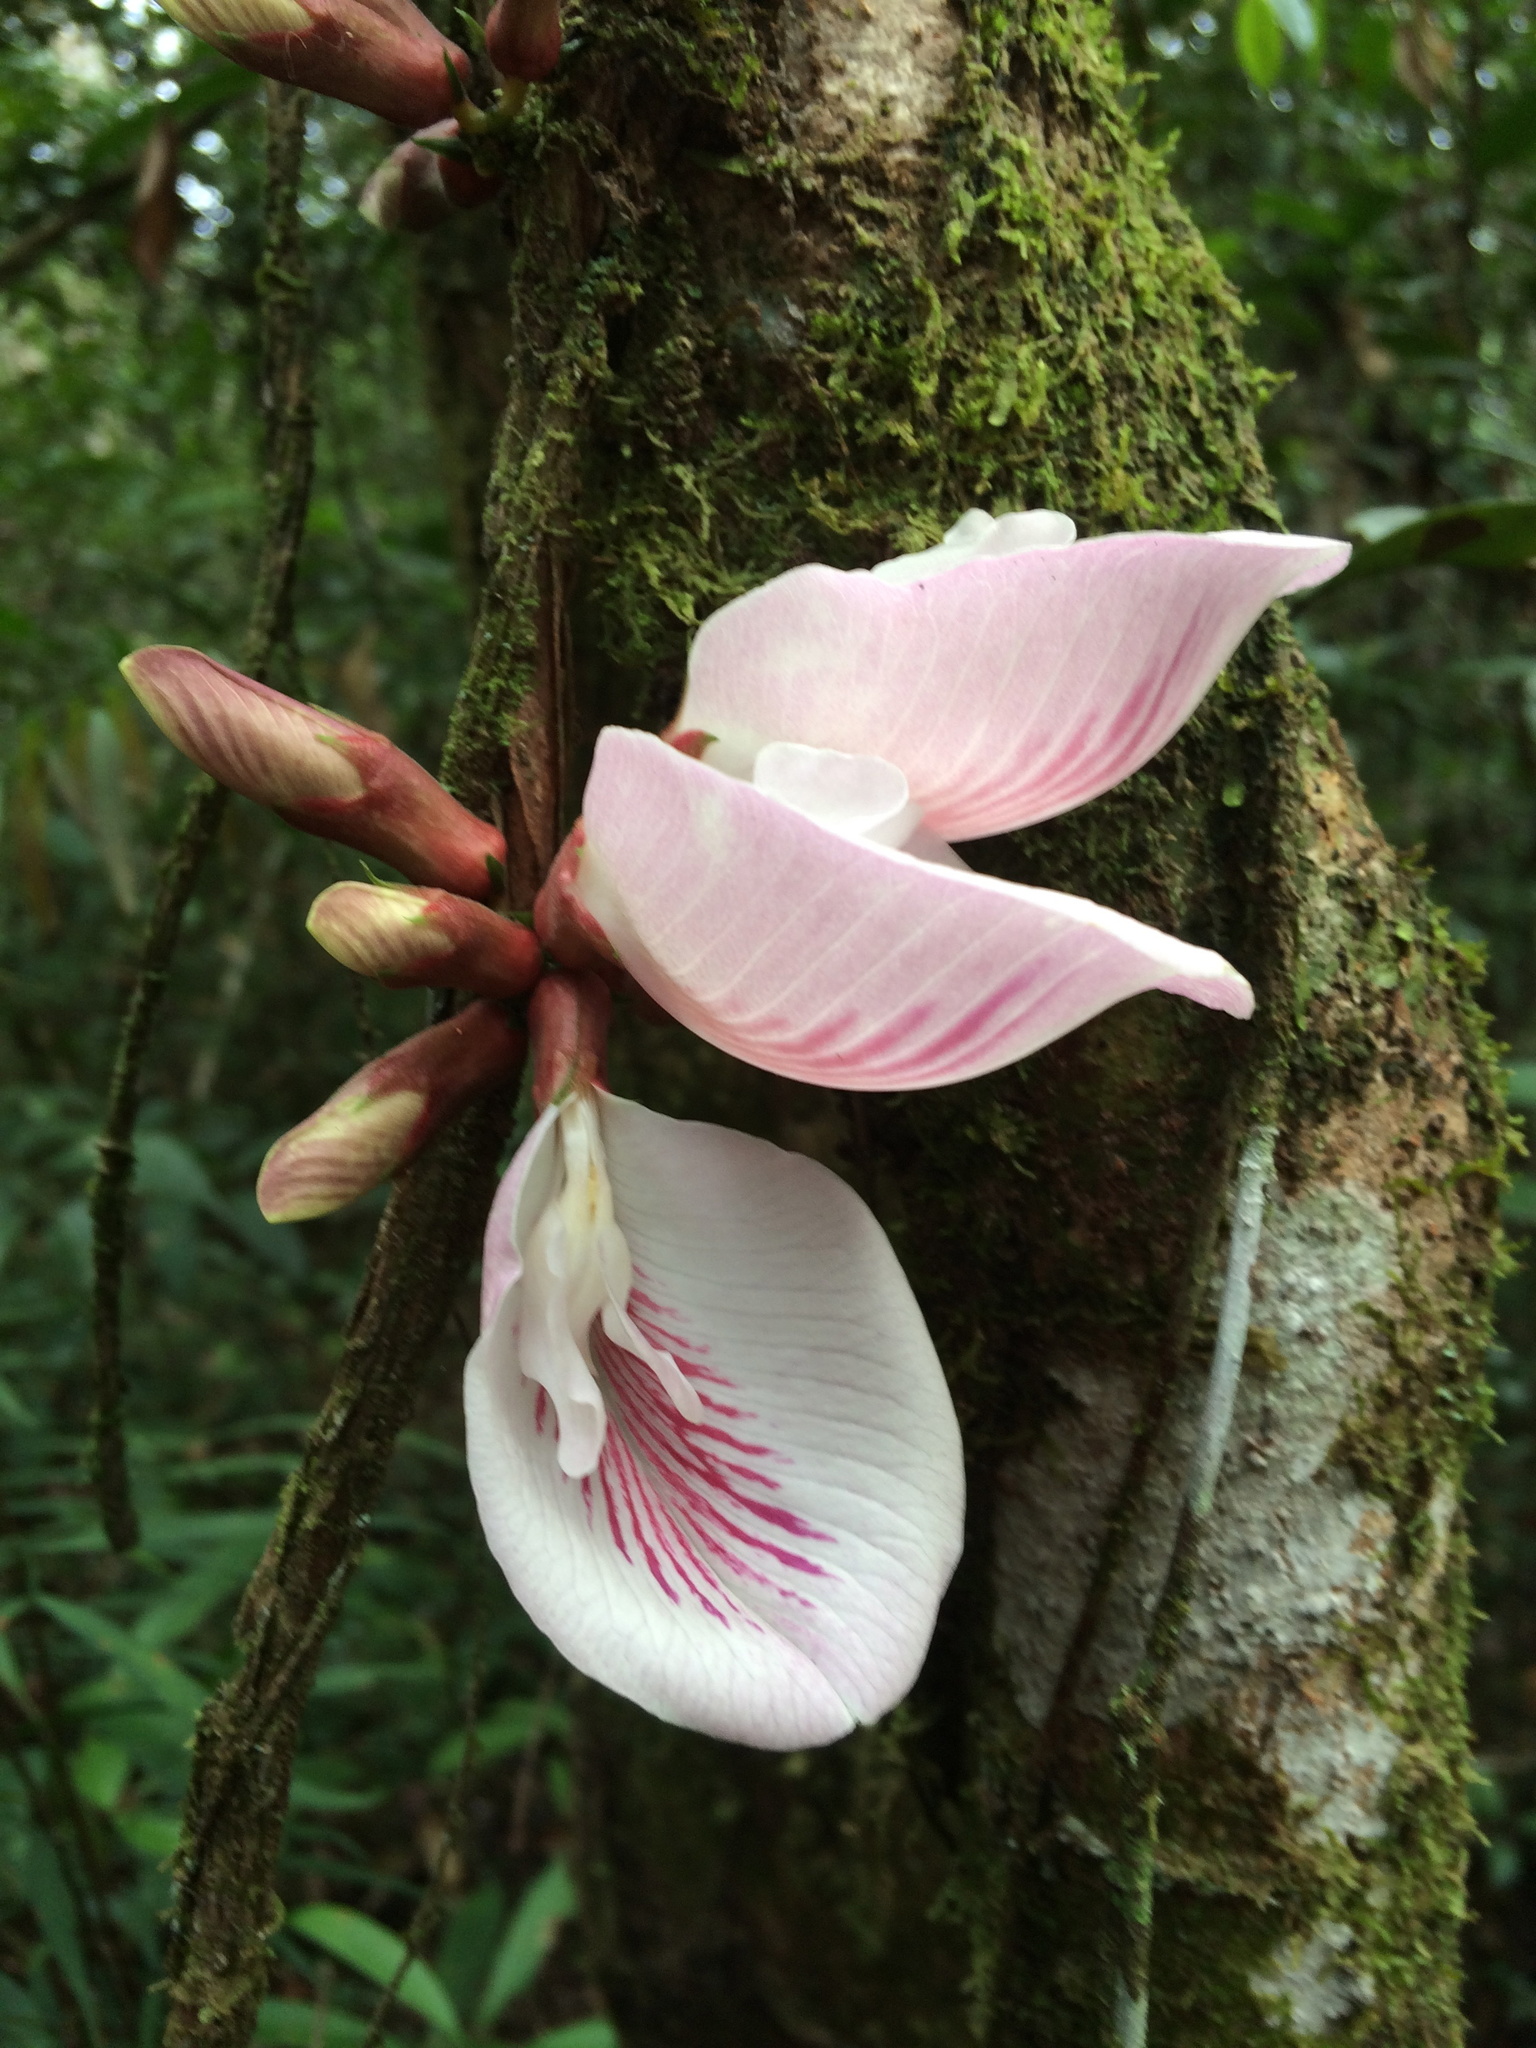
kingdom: Plantae
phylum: Tracheophyta
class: Magnoliopsida
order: Fabales
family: Fabaceae
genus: Clitoria
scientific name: Clitoria sagotii
